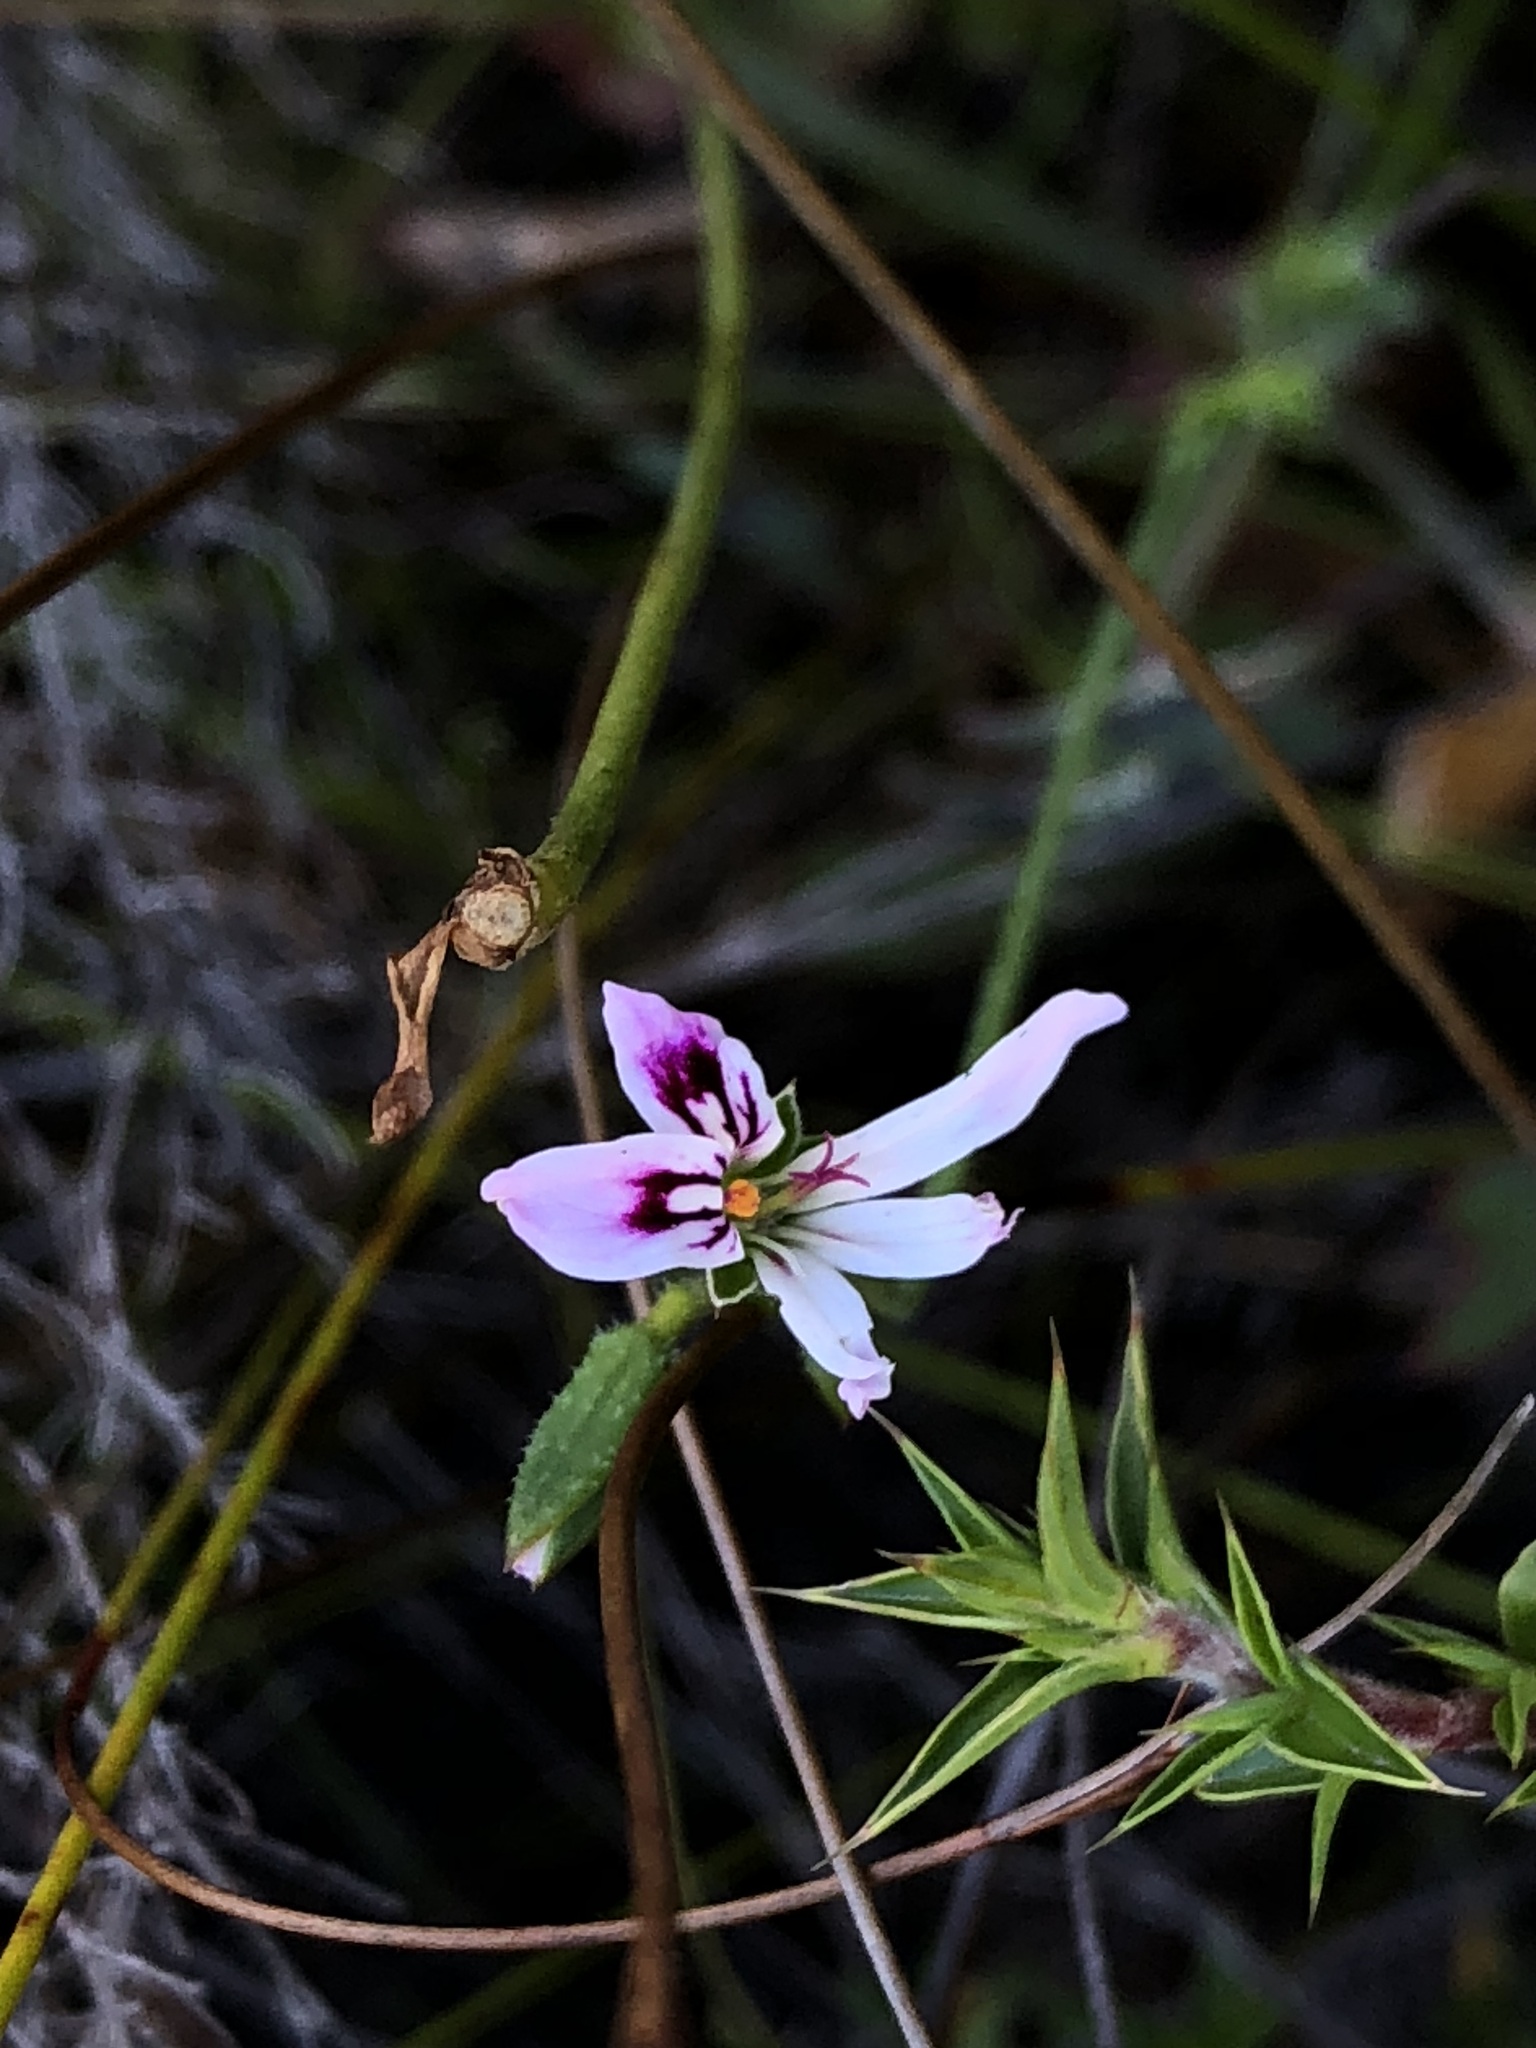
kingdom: Plantae
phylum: Tracheophyta
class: Magnoliopsida
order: Geraniales
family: Geraniaceae
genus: Pelargonium
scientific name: Pelargonium tabulare
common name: Table mountain pelargonium
